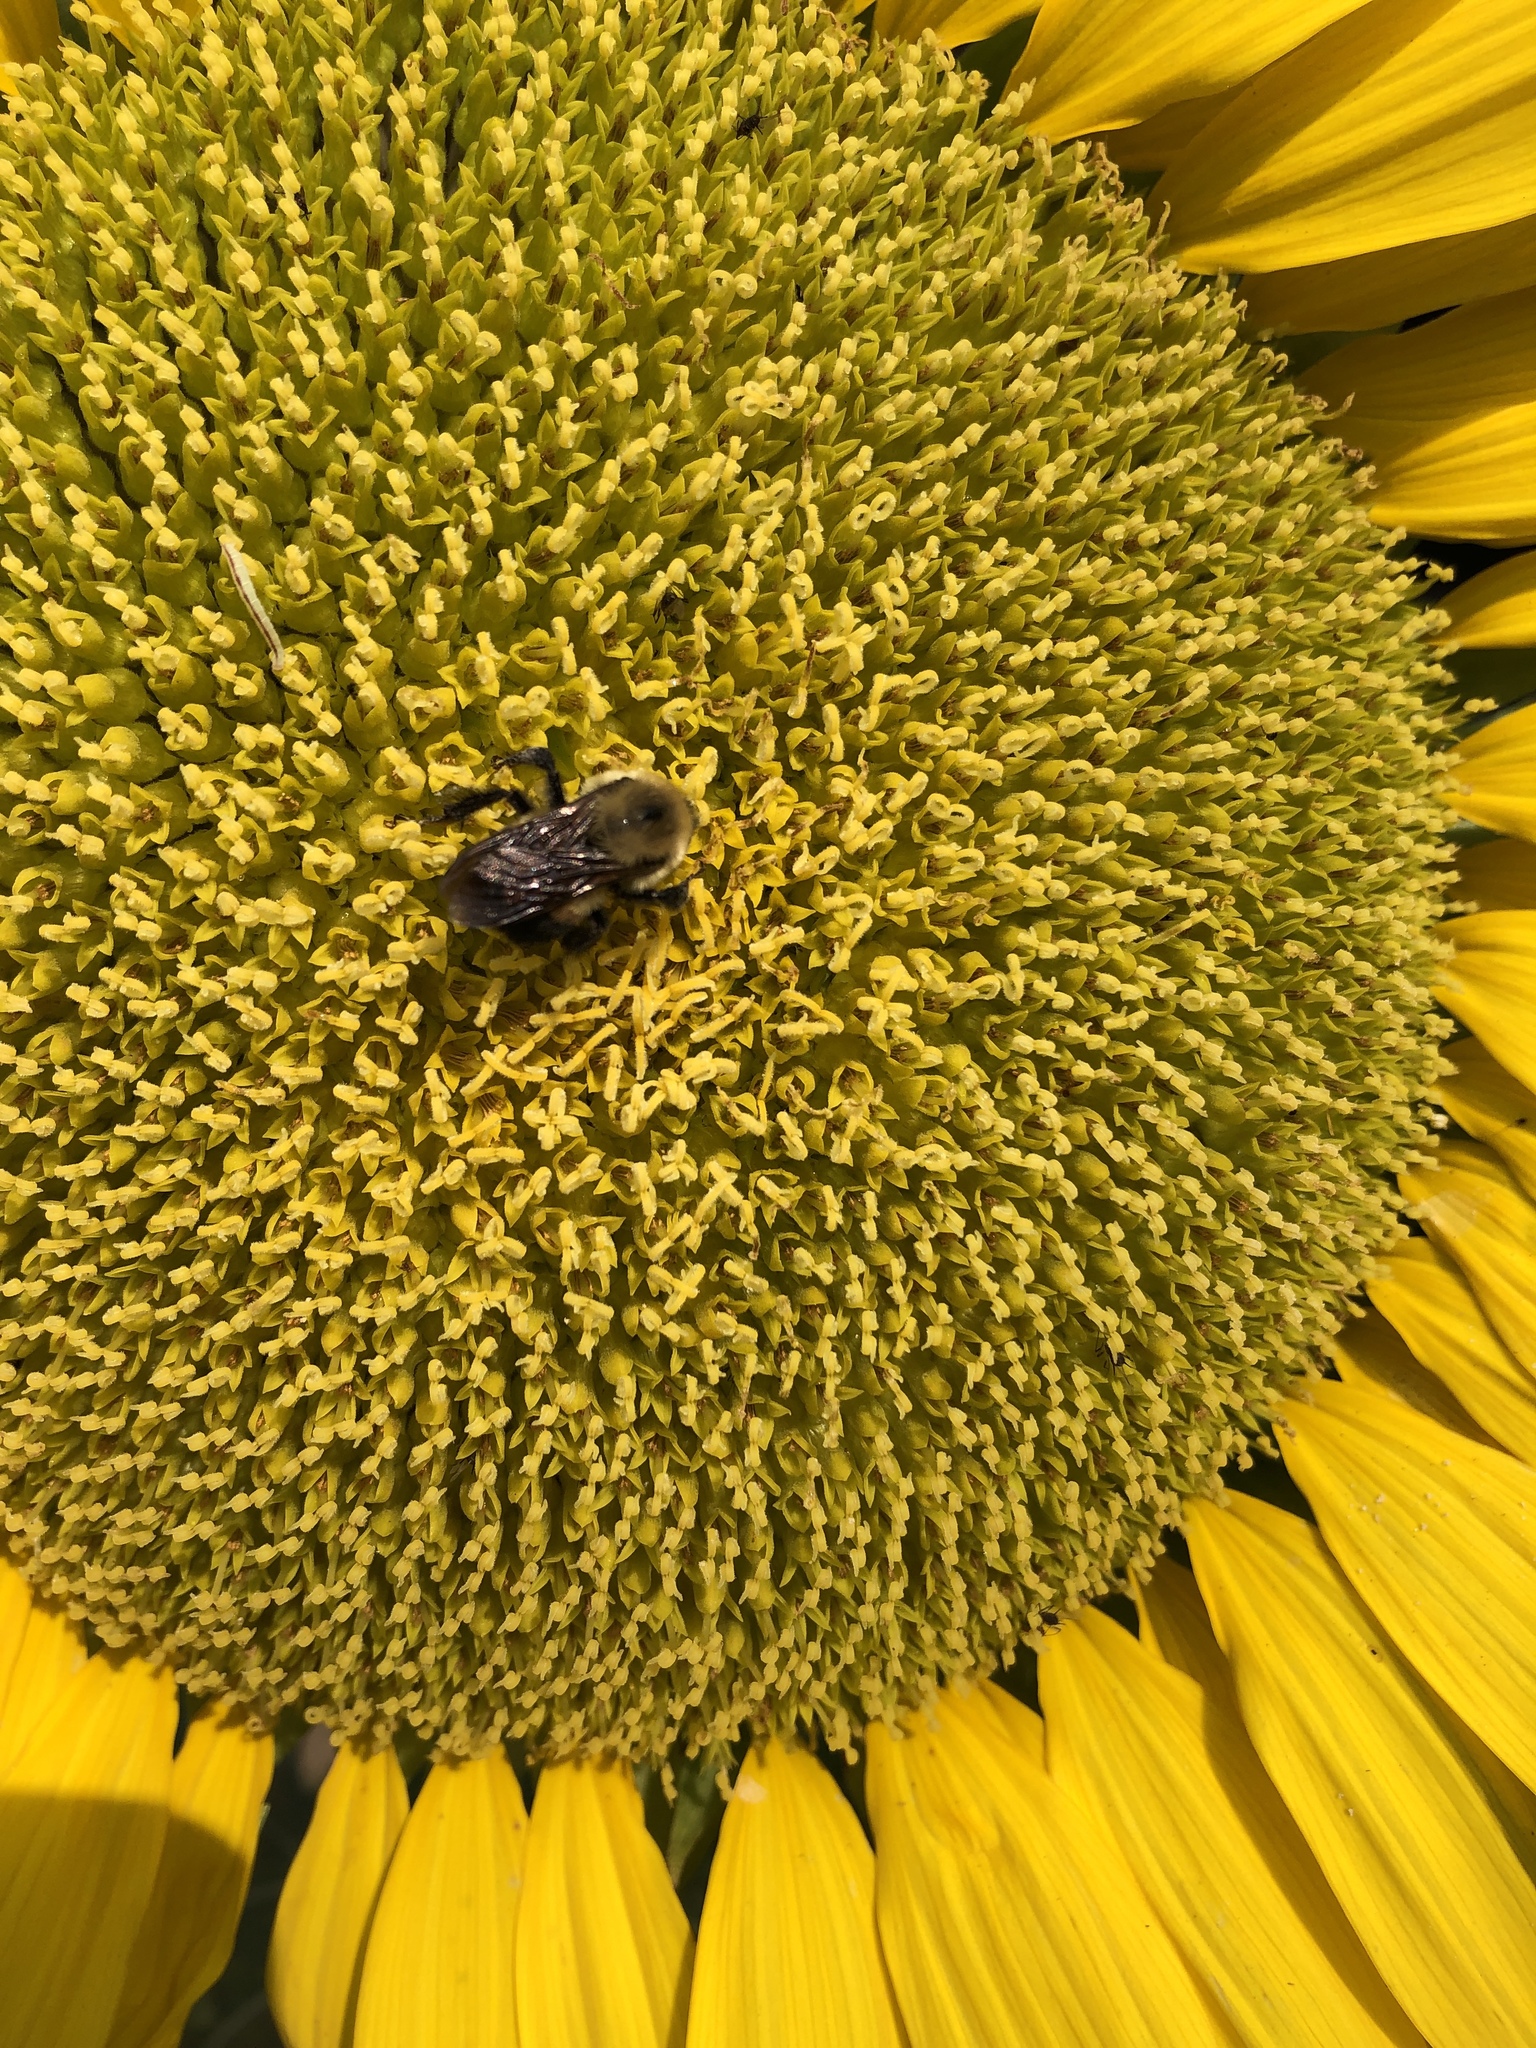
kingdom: Animalia
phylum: Arthropoda
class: Insecta
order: Hymenoptera
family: Apidae
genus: Bombus
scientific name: Bombus griseocollis
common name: Brown-belted bumble bee
